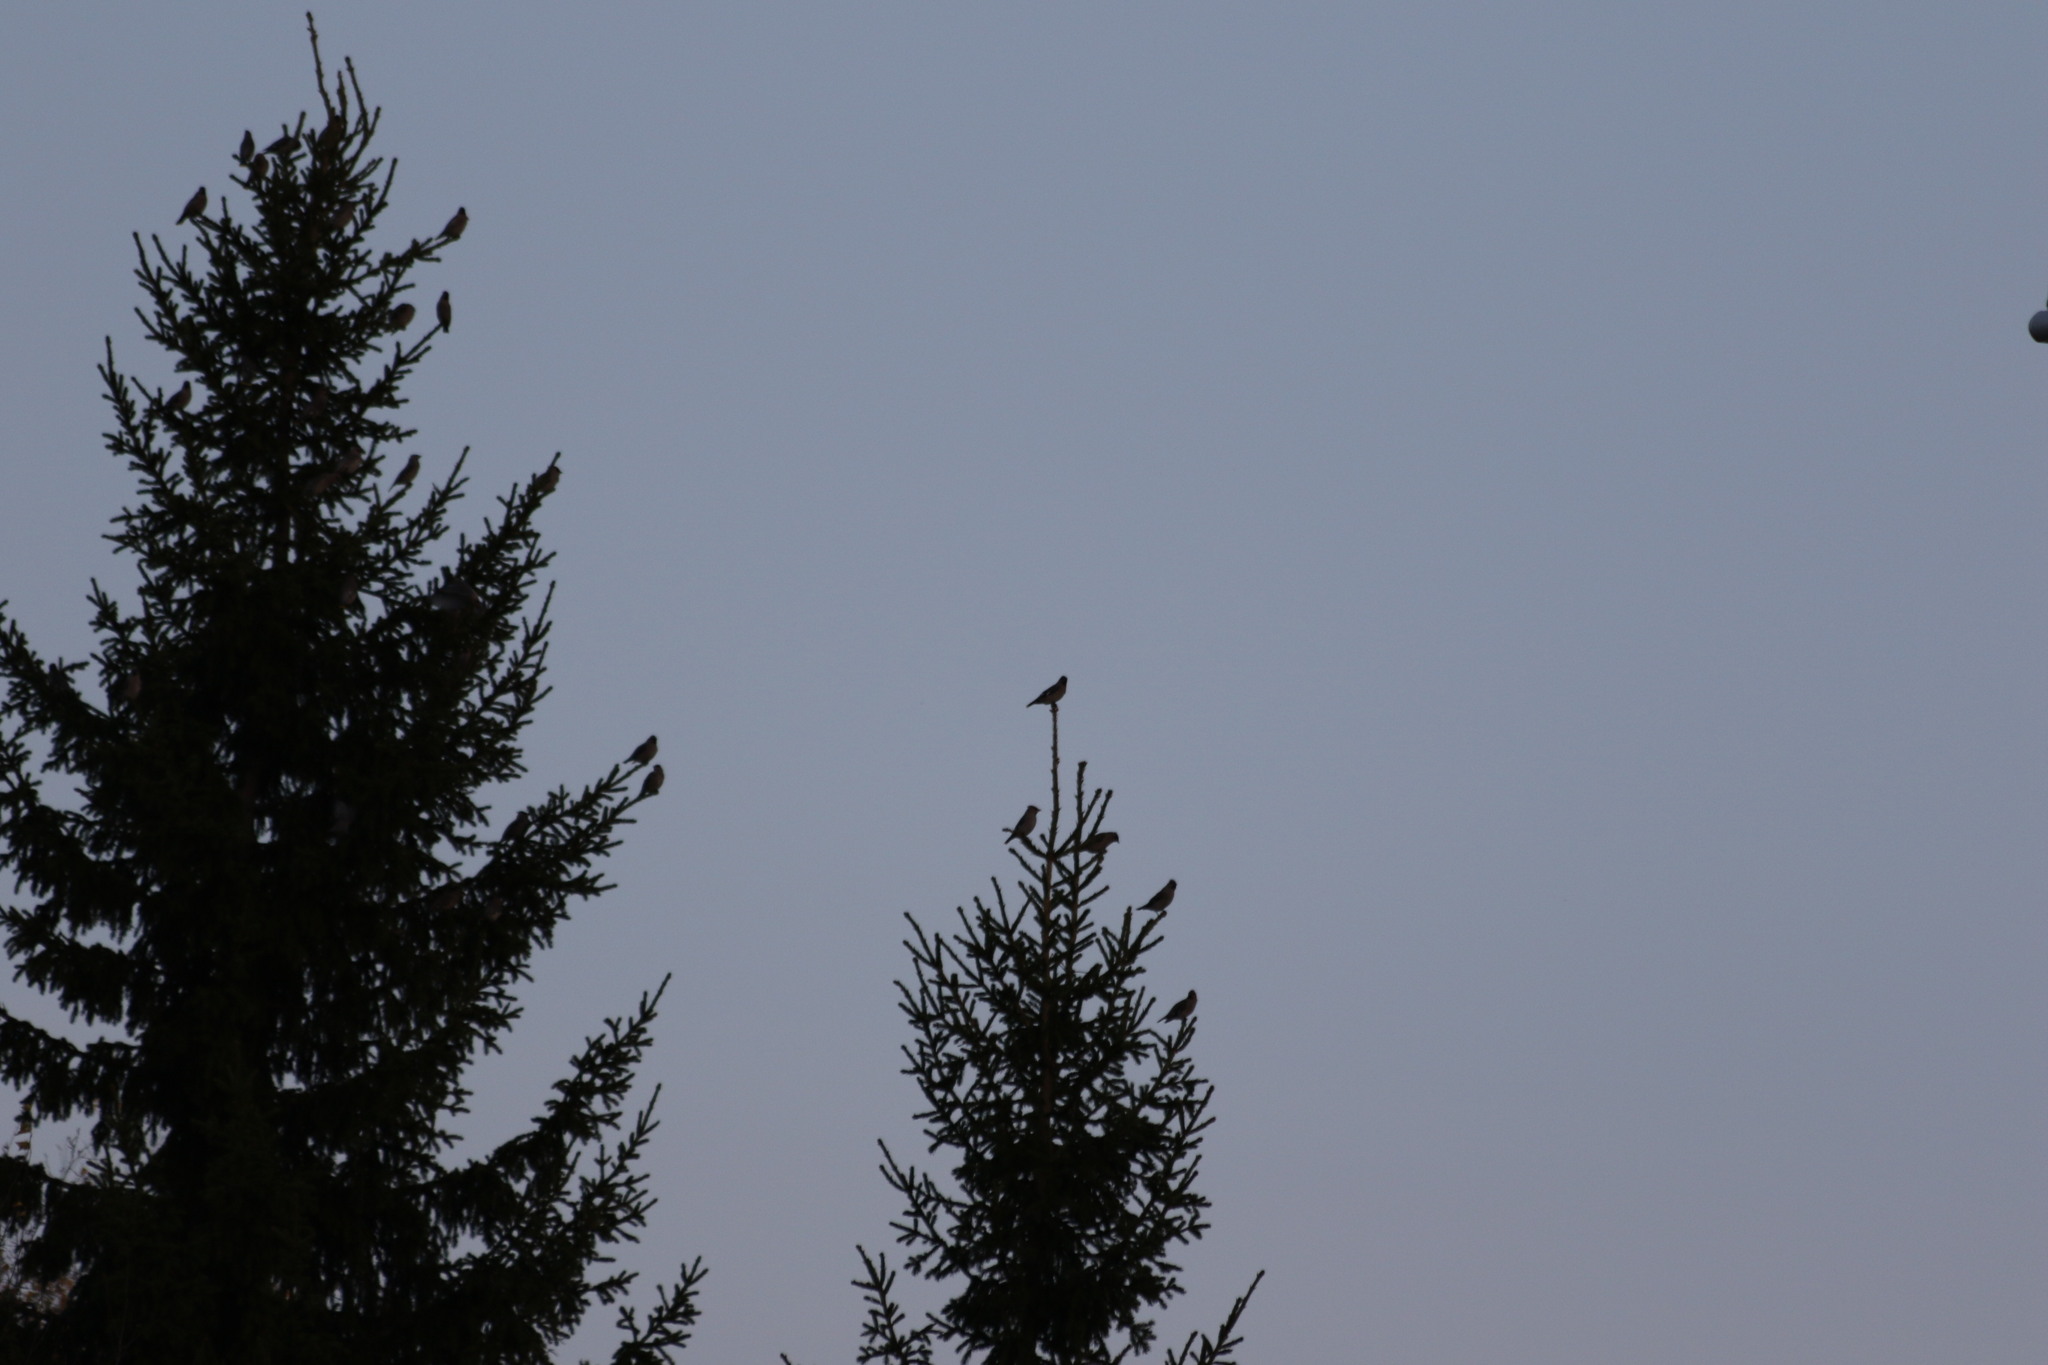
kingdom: Animalia
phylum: Chordata
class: Aves
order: Passeriformes
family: Bombycillidae
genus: Bombycilla
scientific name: Bombycilla garrulus
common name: Bohemian waxwing
